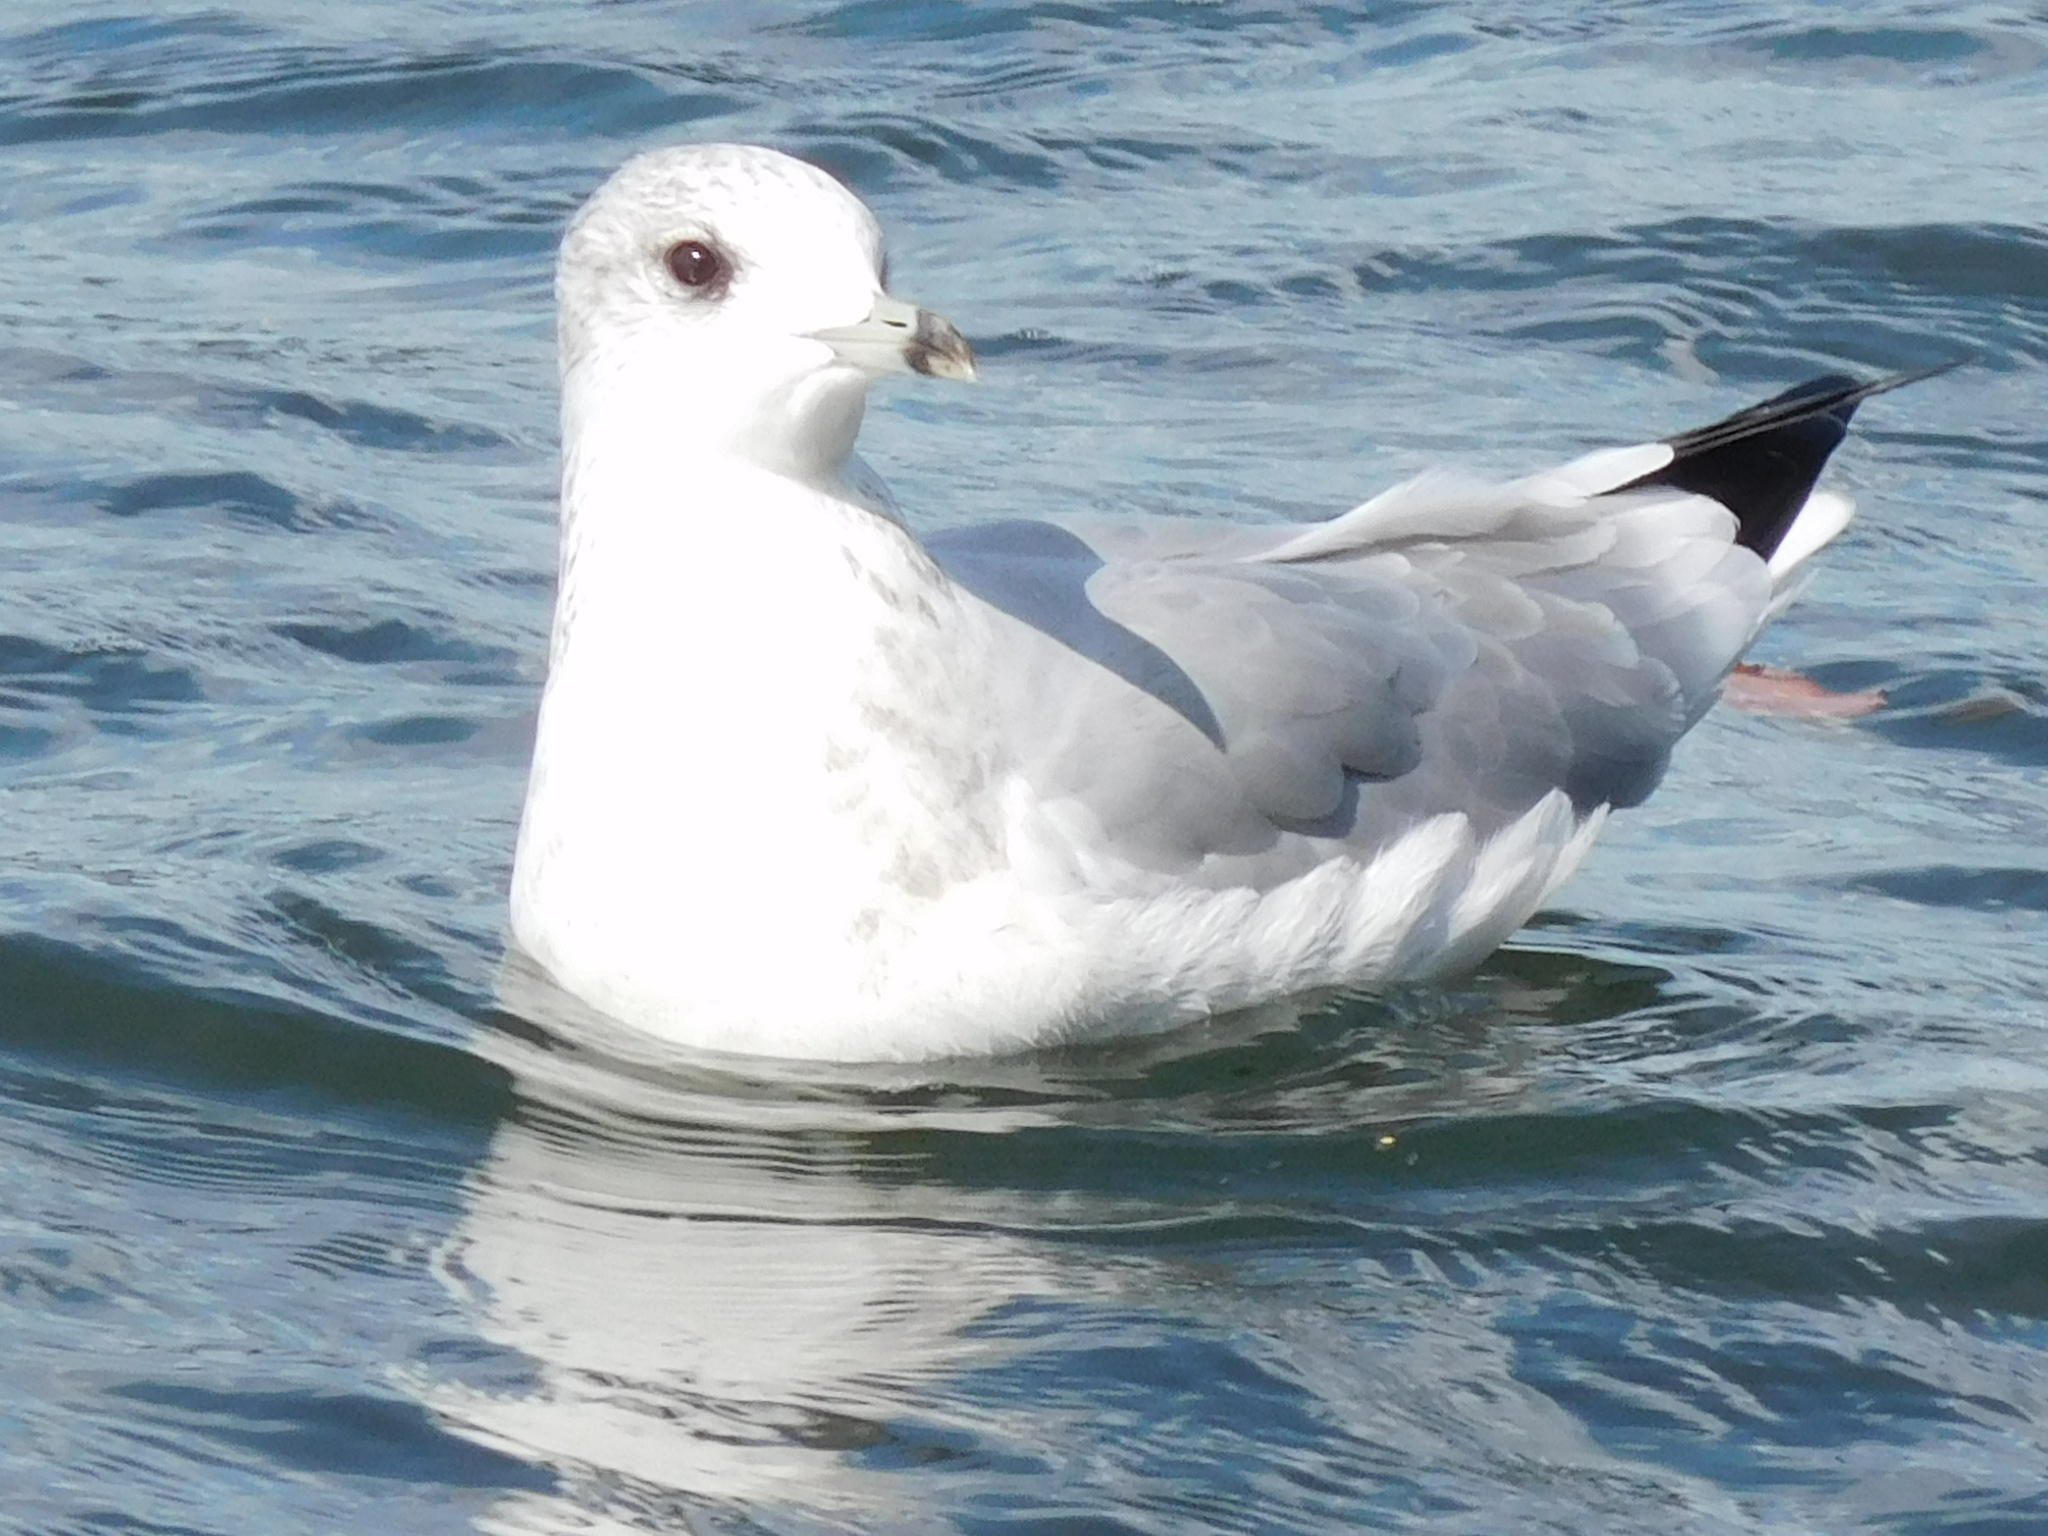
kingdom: Animalia
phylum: Chordata
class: Aves
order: Charadriiformes
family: Laridae
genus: Larus
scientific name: Larus canus
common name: Mew gull
